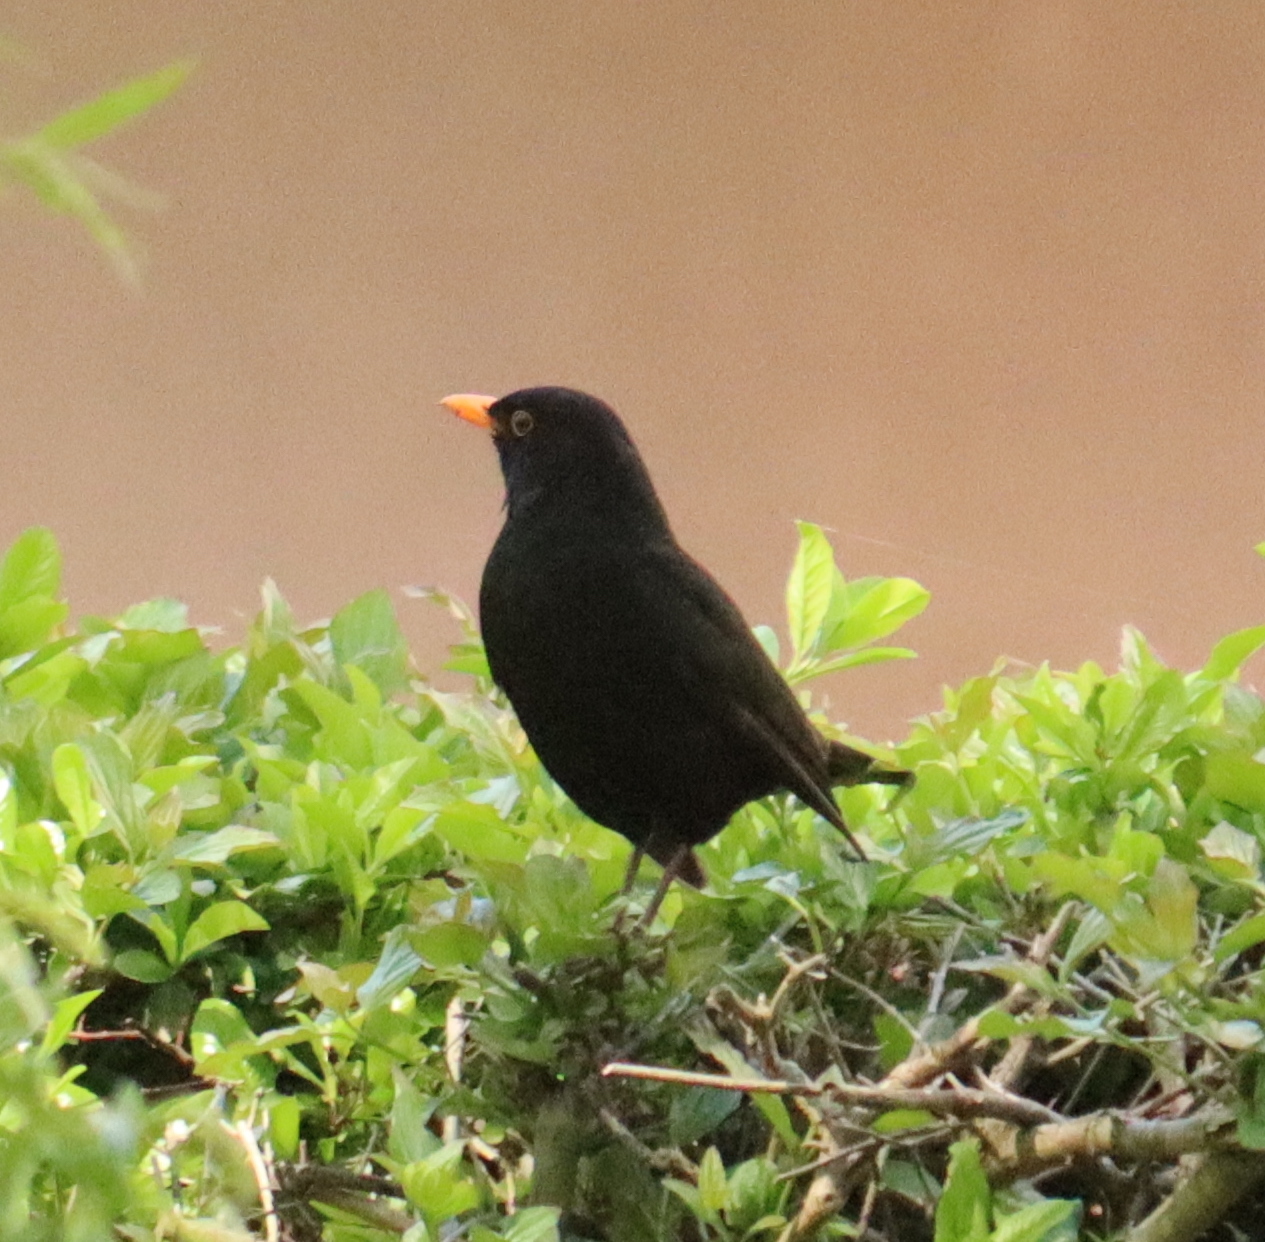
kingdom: Animalia
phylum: Chordata
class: Aves
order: Passeriformes
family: Turdidae
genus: Turdus
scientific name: Turdus merula
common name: Common blackbird
